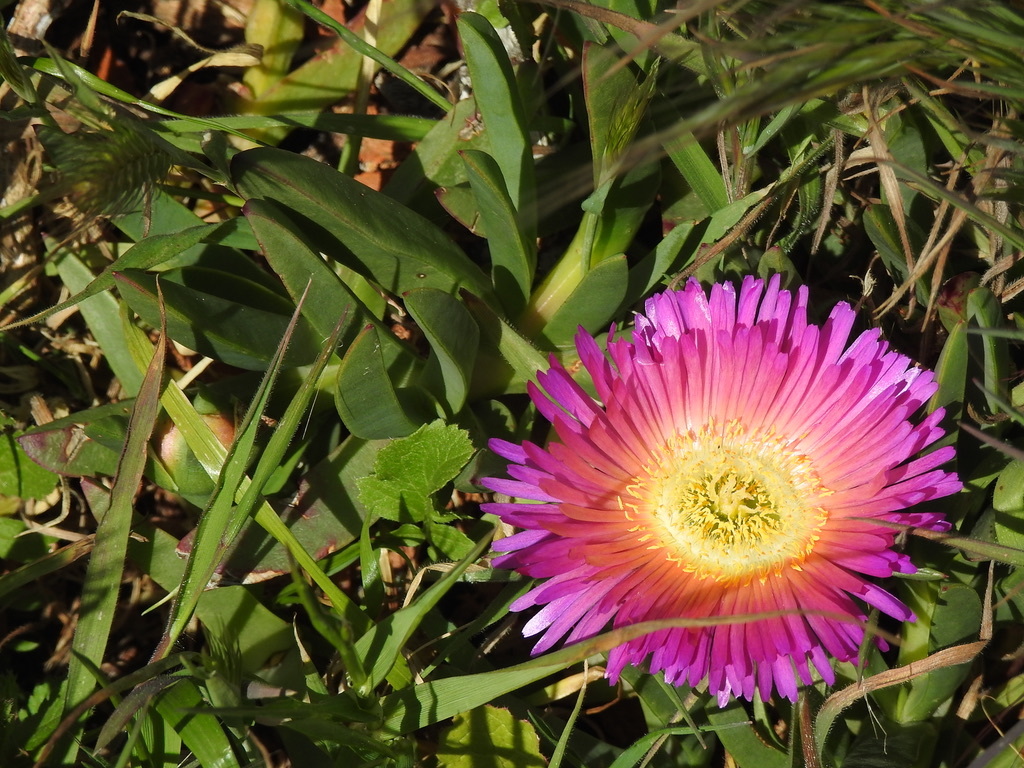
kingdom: Plantae
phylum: Tracheophyta
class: Magnoliopsida
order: Caryophyllales
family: Aizoaceae
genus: Carpobrotus
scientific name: Carpobrotus chilensis
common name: Sea fig
